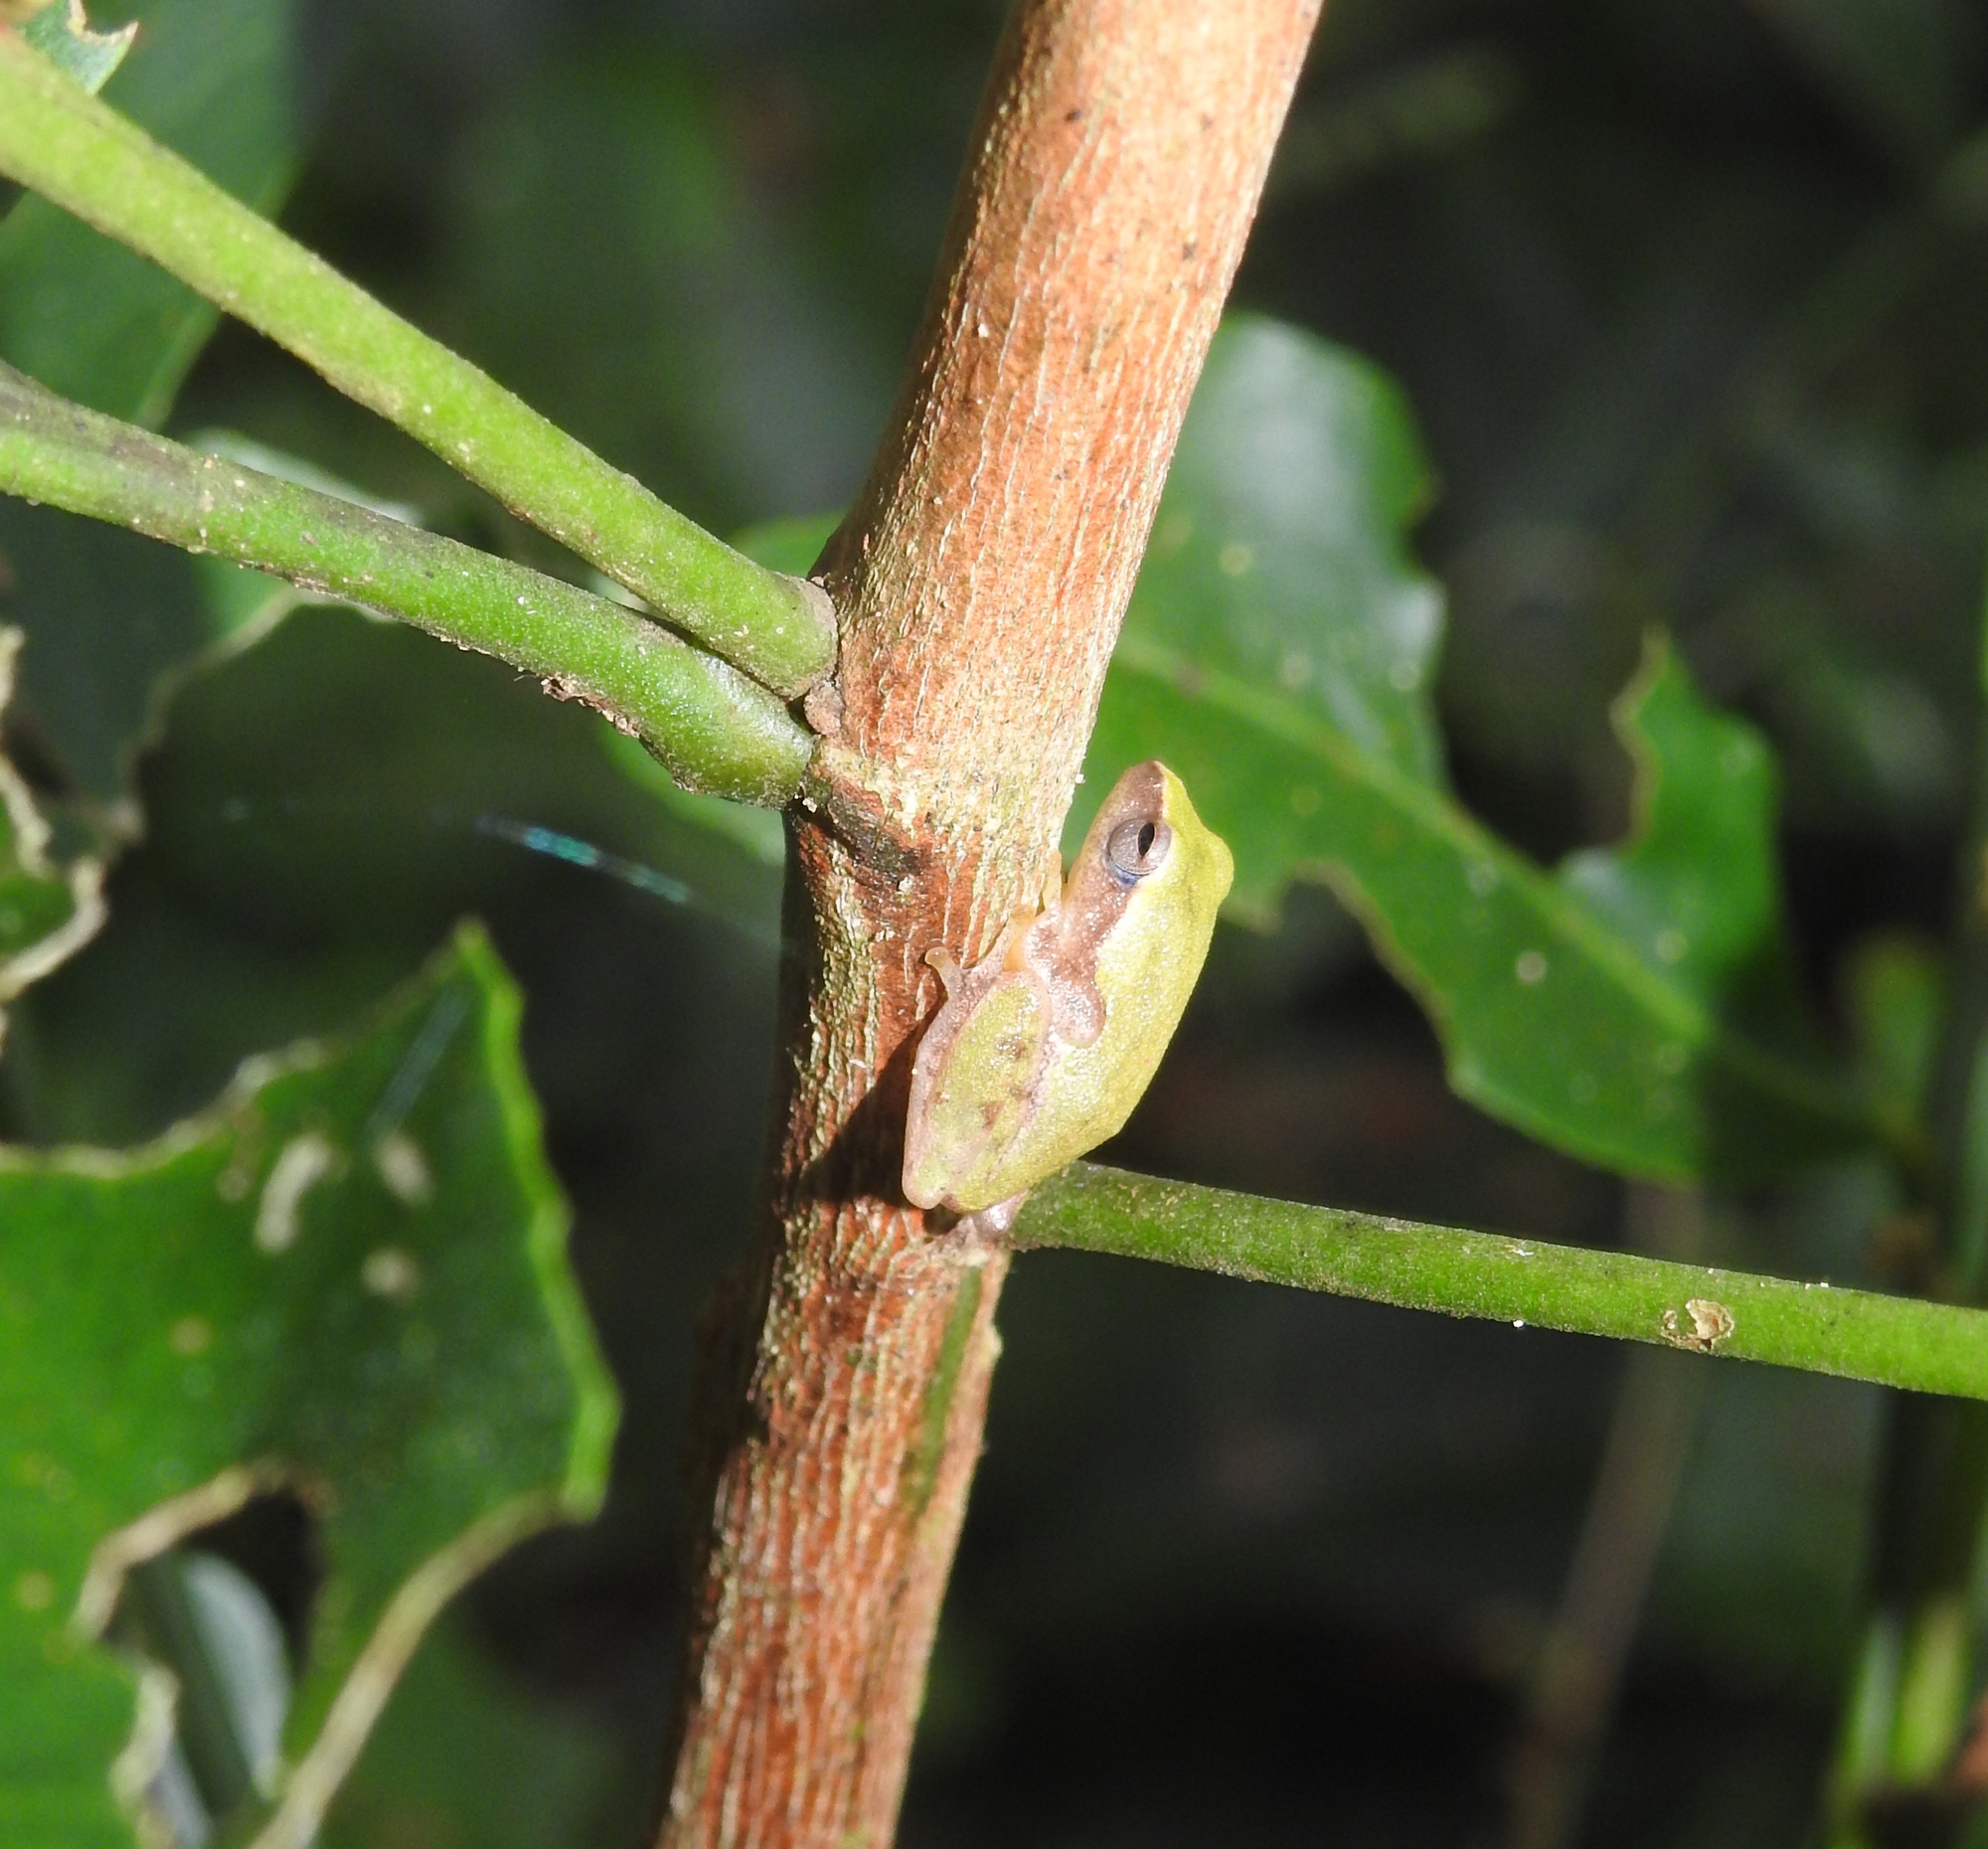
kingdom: Animalia
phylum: Chordata
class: Amphibia
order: Anura
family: Rhacophoridae
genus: Raorchestes
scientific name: Raorchestes akroparallagi
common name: Variable bush frog
